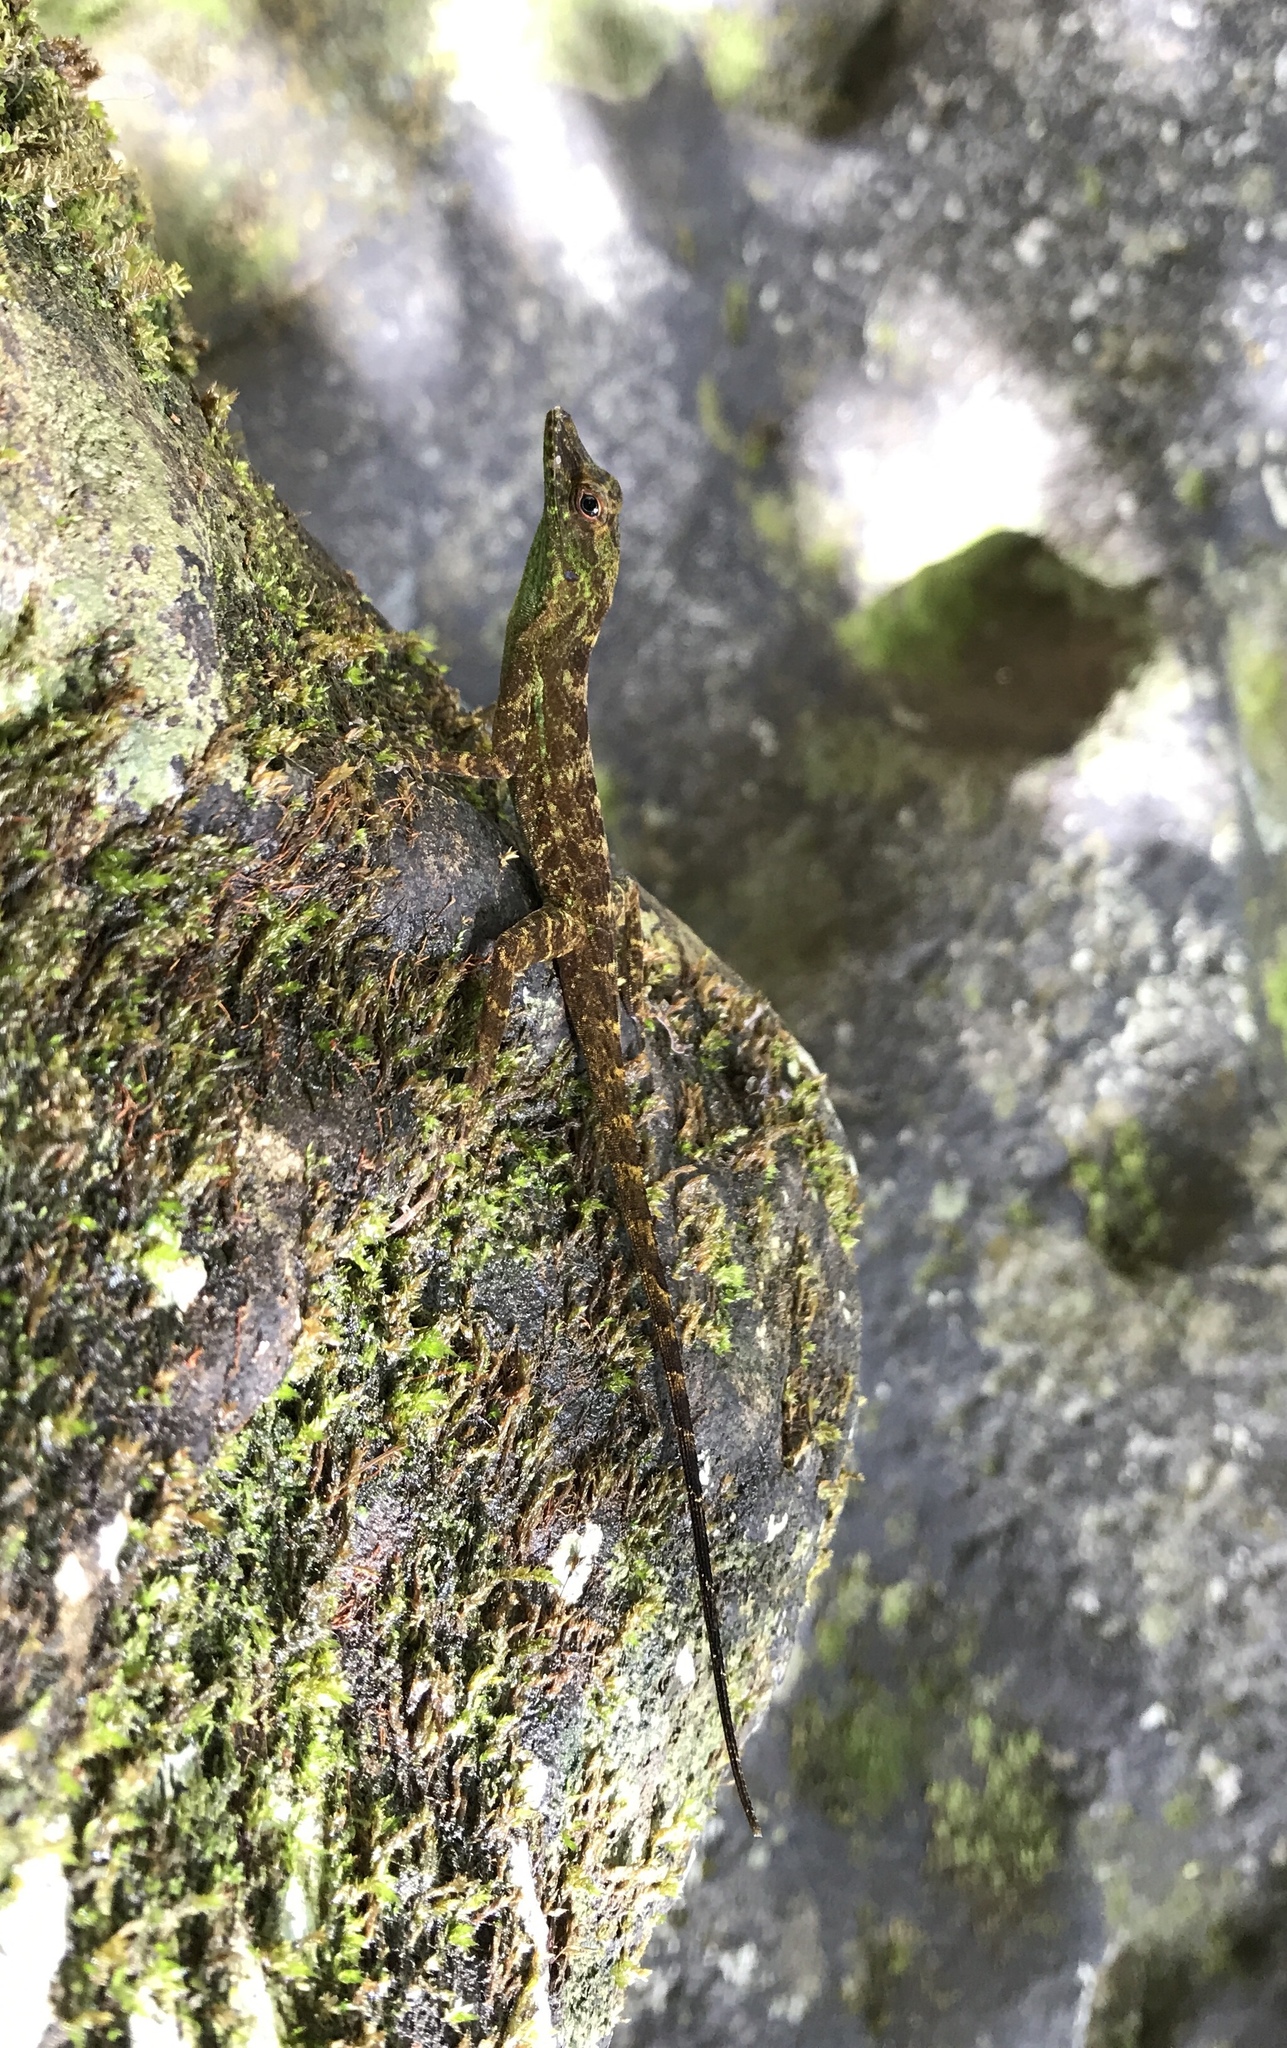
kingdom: Animalia
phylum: Chordata
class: Squamata
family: Dactyloidae
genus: Anolis
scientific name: Anolis evermanni
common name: Emerald anole
